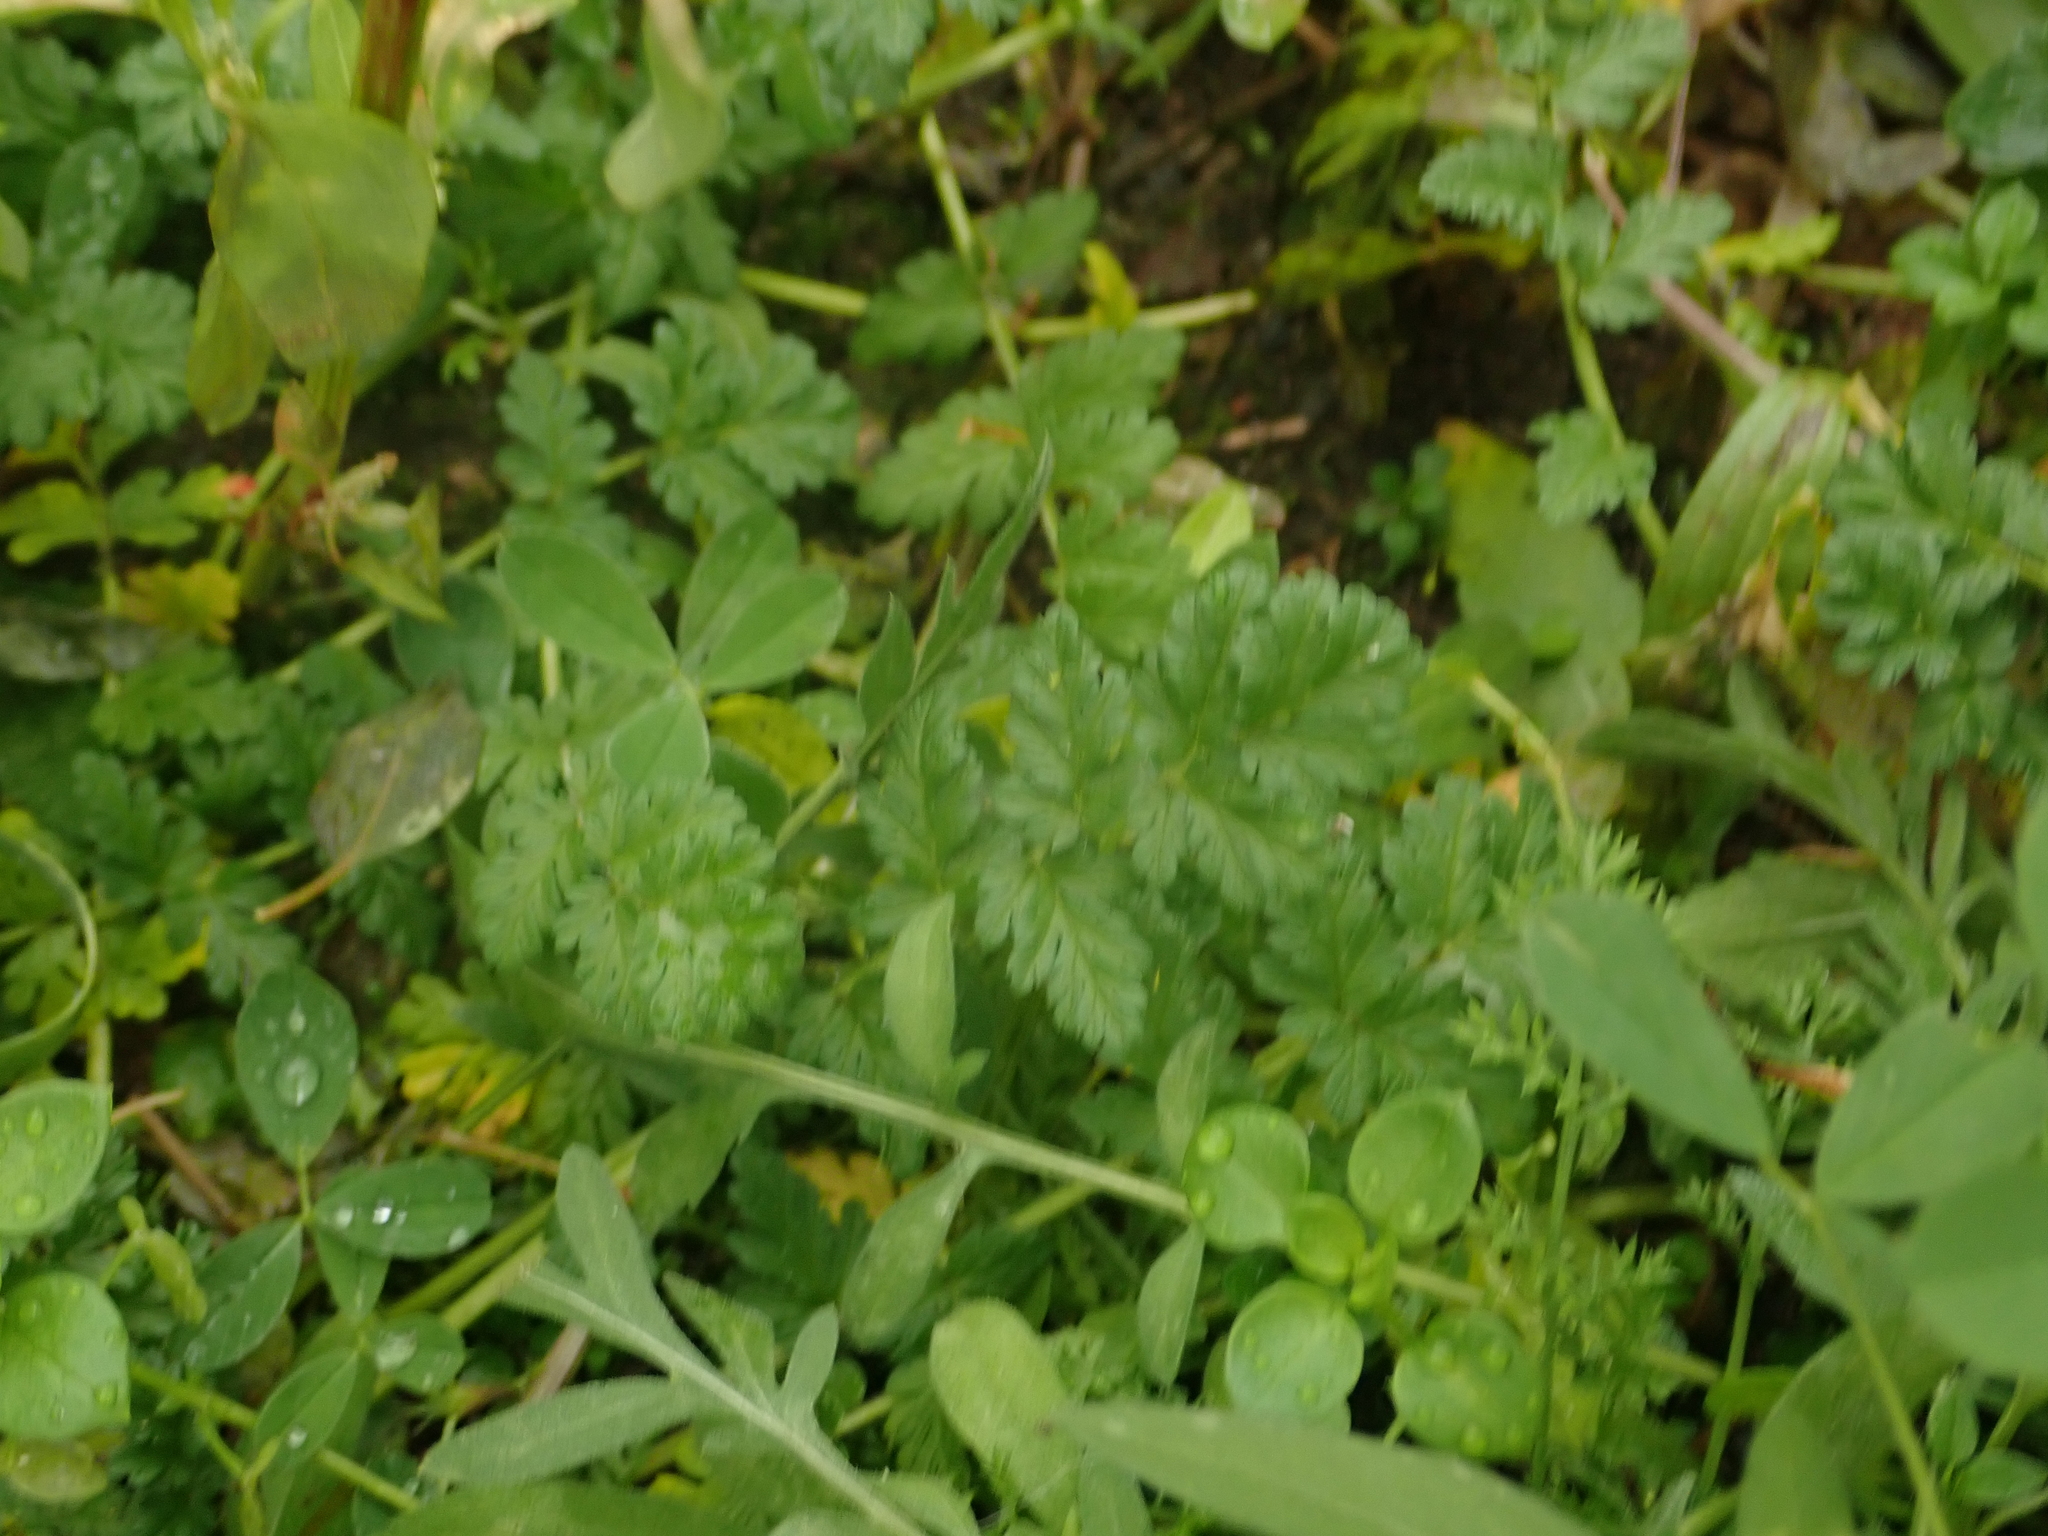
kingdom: Plantae
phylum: Tracheophyta
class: Magnoliopsida
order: Geraniales
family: Geraniaceae
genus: Erodium
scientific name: Erodium cicutarium
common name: Common stork's-bill
